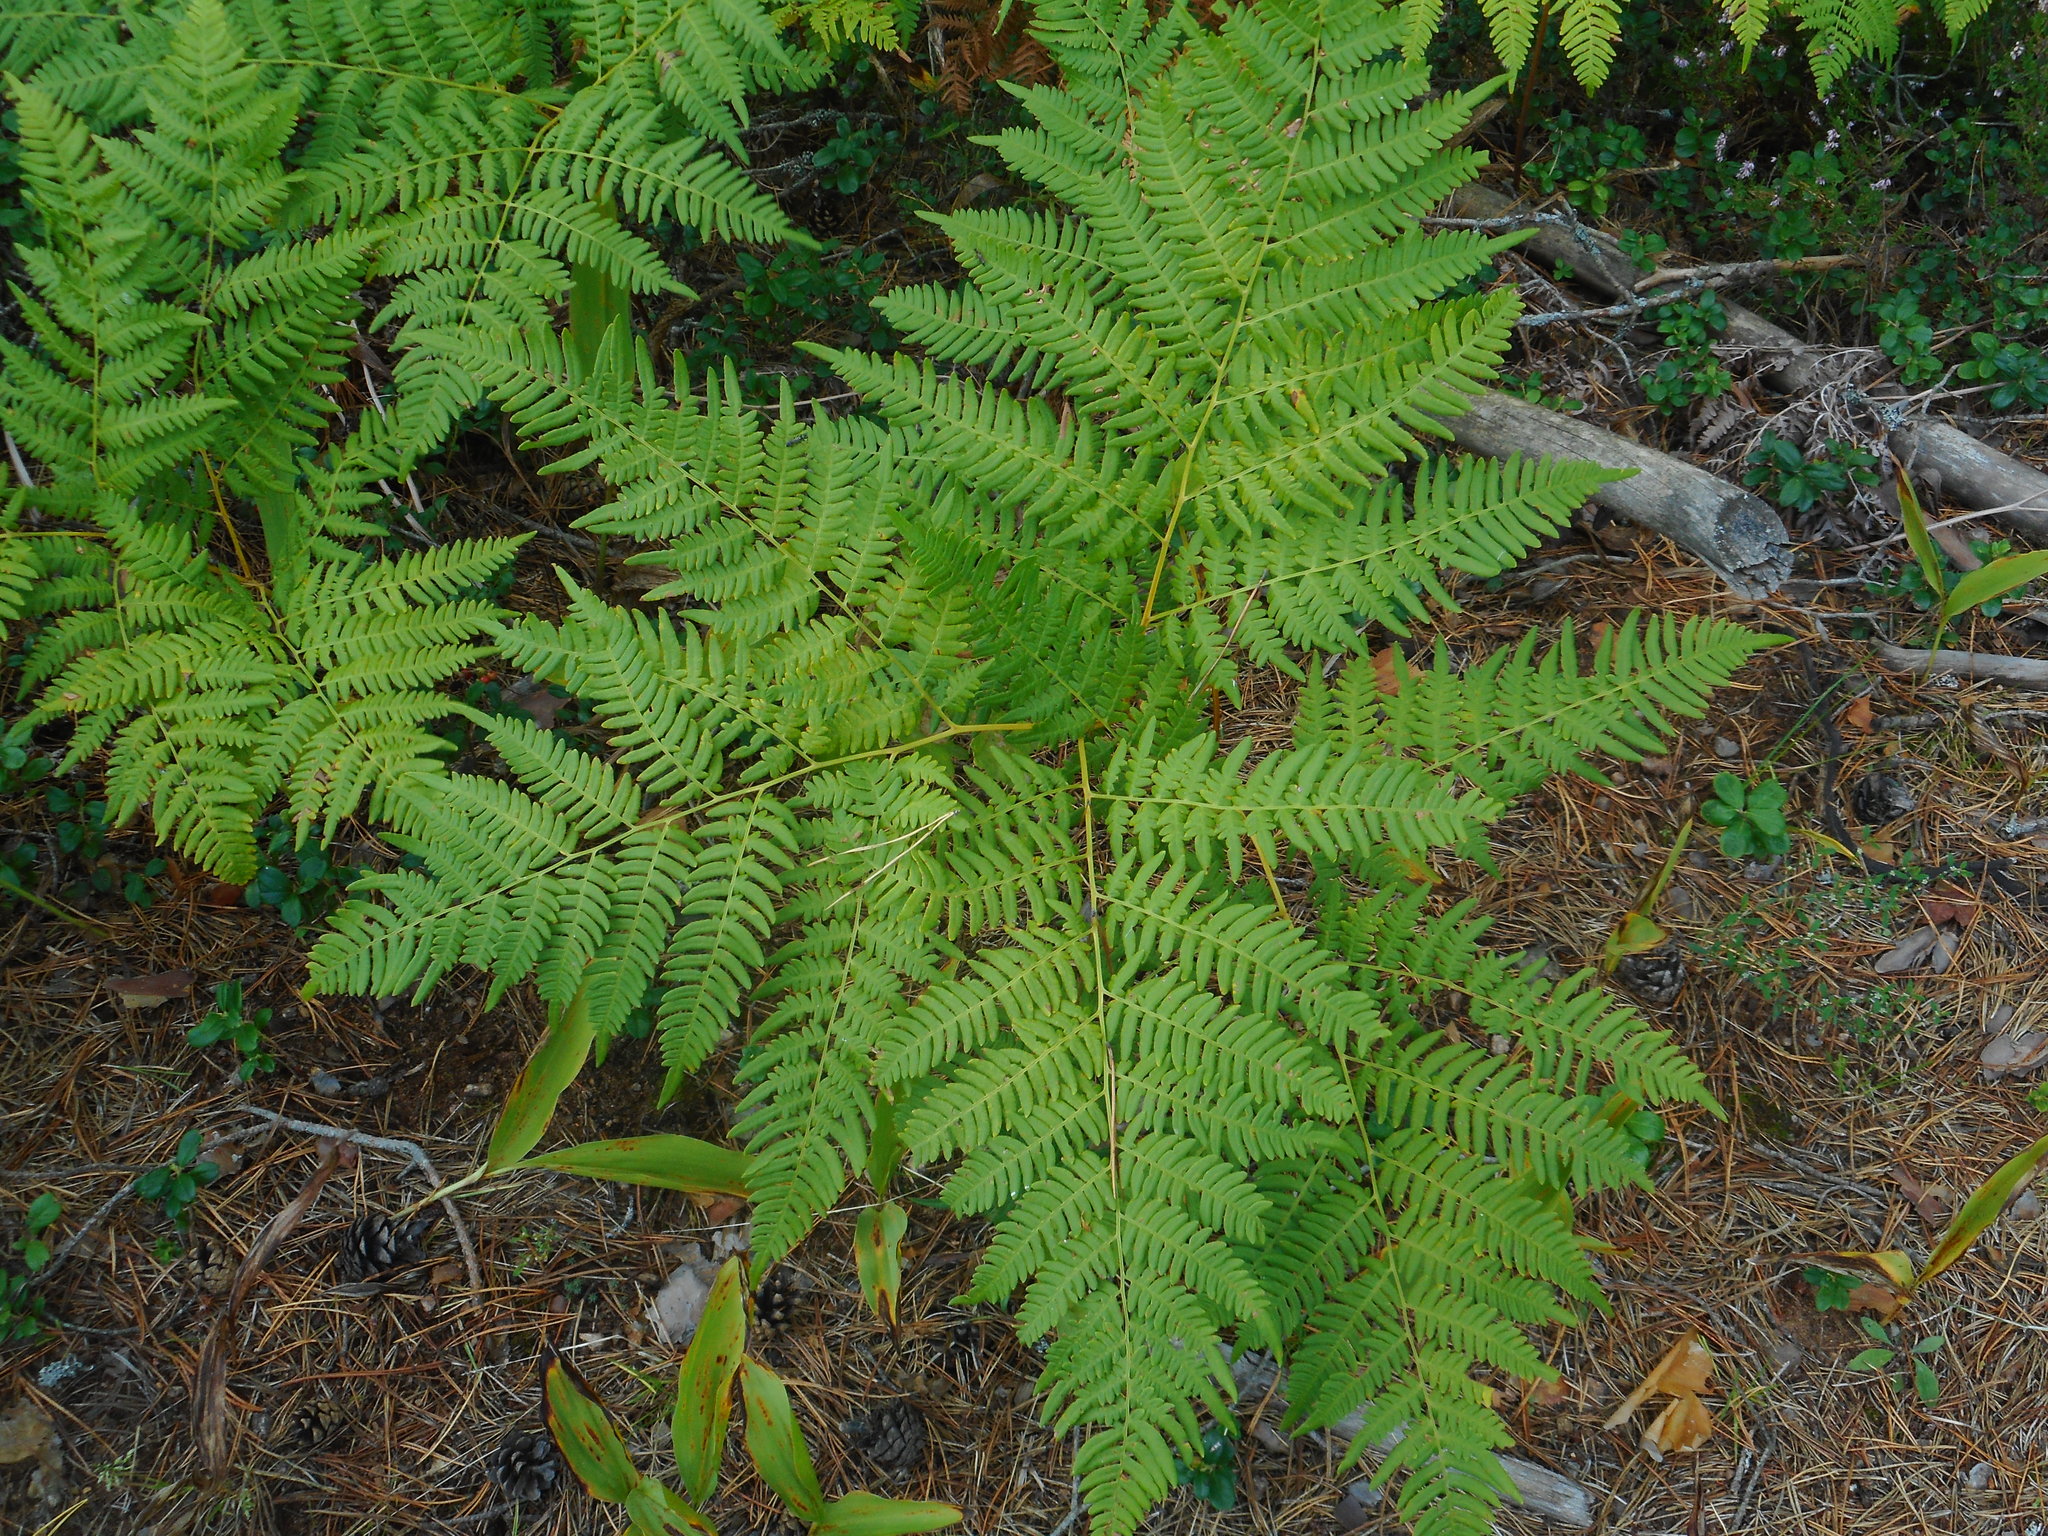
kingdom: Plantae
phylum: Tracheophyta
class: Polypodiopsida
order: Polypodiales
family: Dennstaedtiaceae
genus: Pteridium
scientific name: Pteridium aquilinum
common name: Bracken
